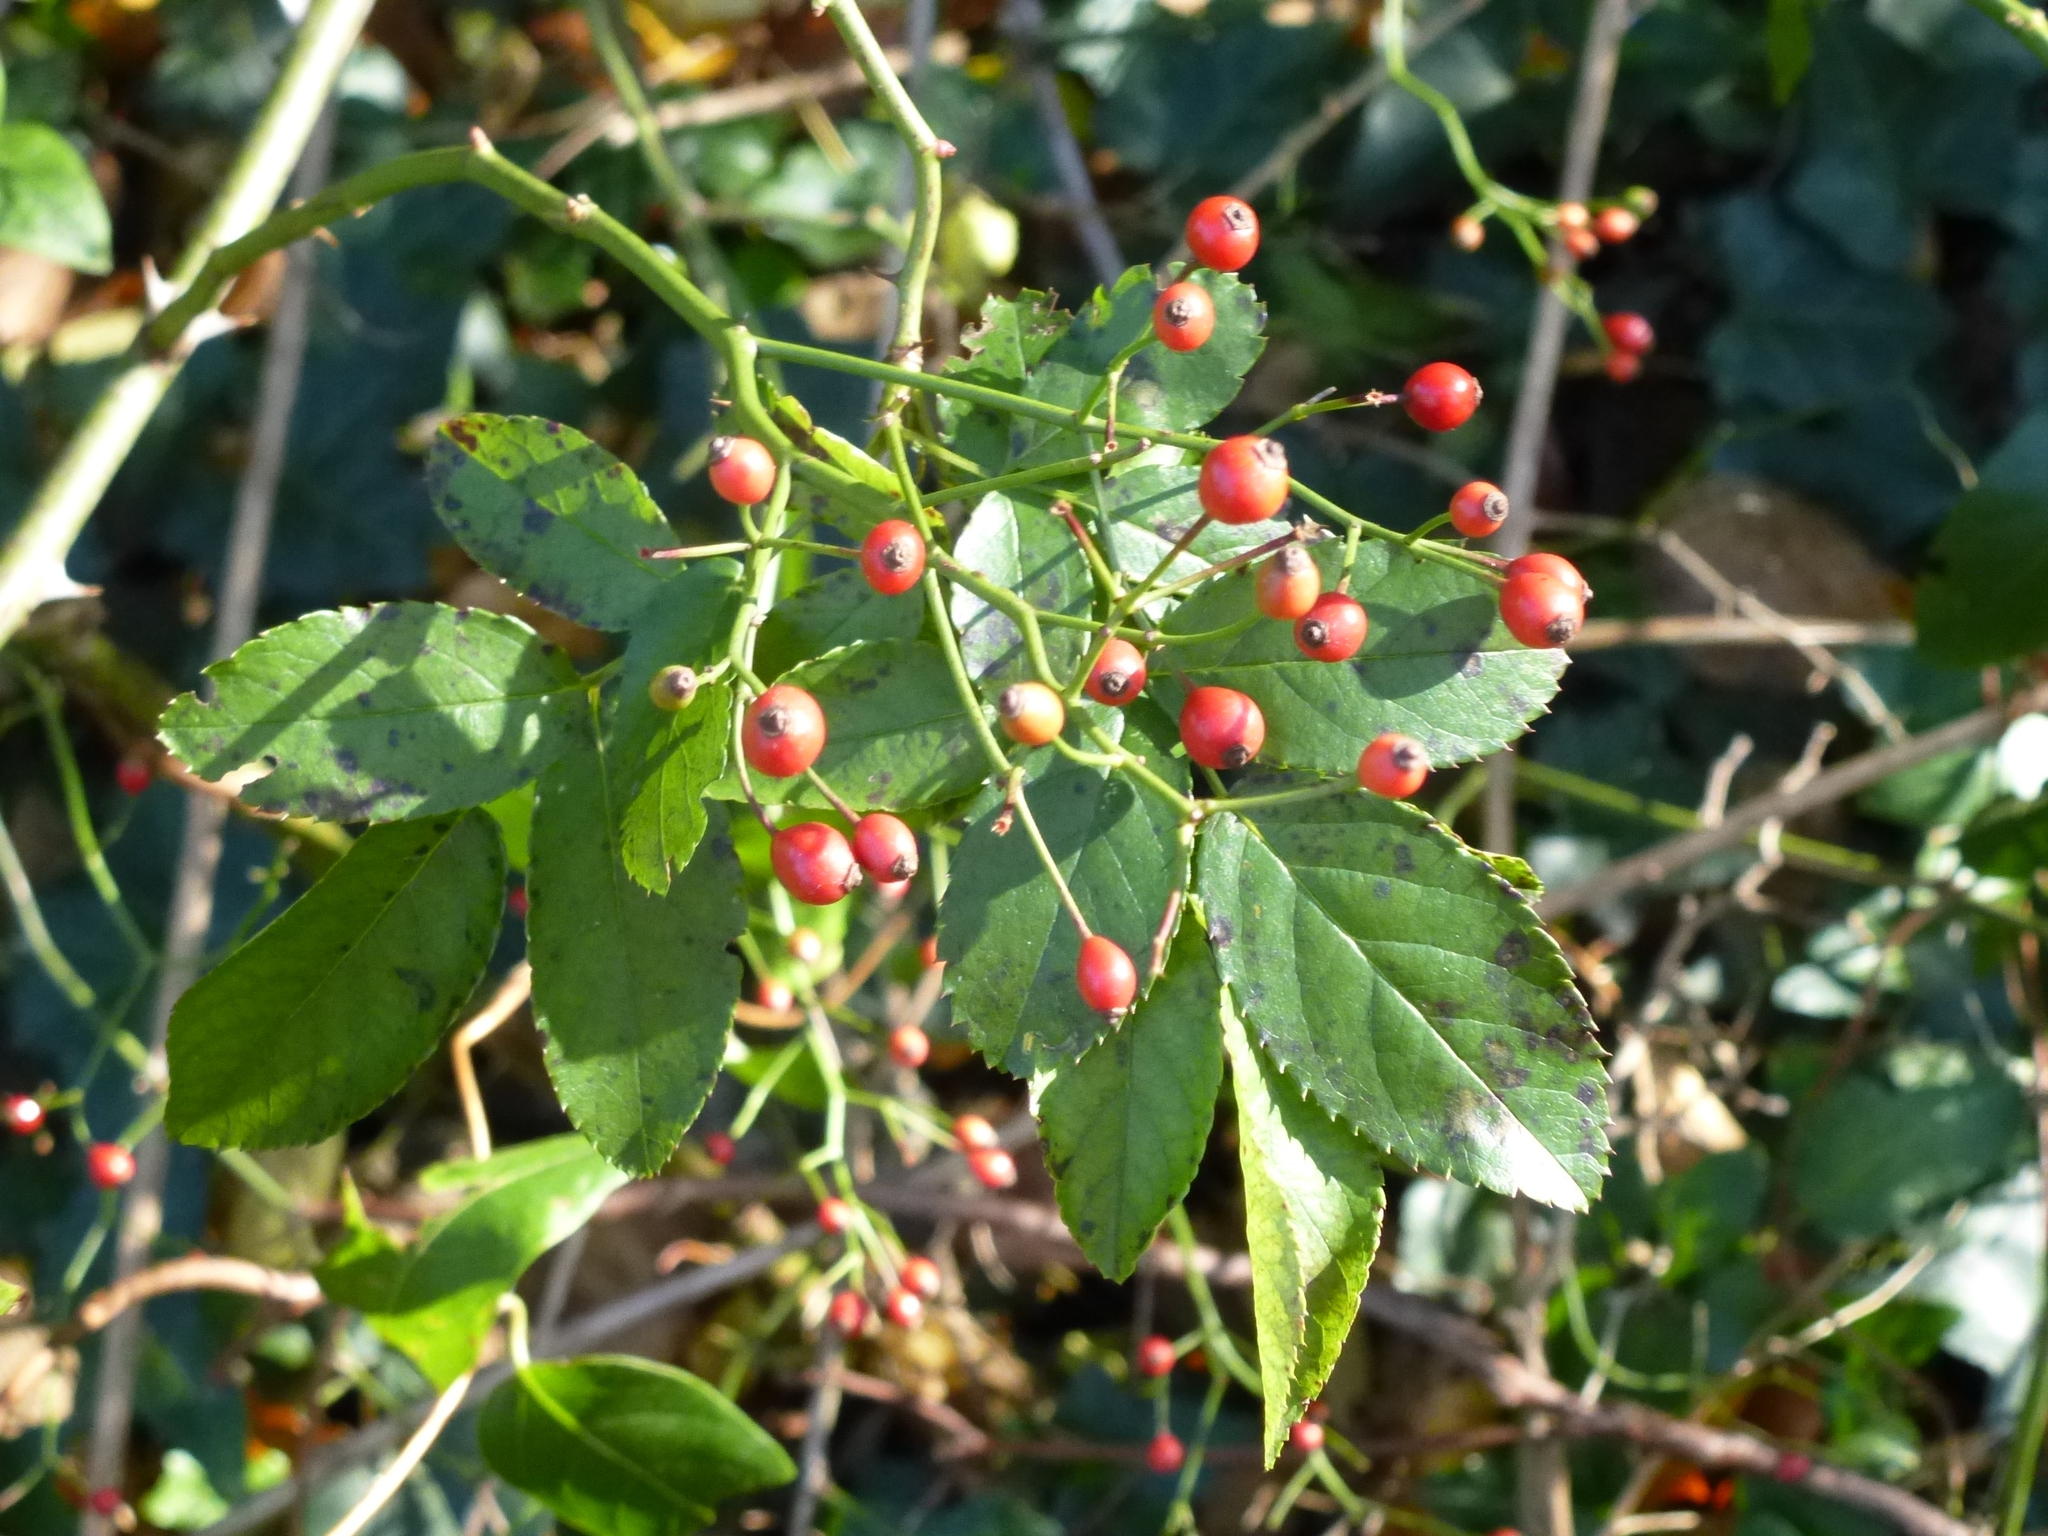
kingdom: Plantae
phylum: Tracheophyta
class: Magnoliopsida
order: Rosales
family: Rosaceae
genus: Rosa
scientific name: Rosa multiflora
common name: Multiflora rose
